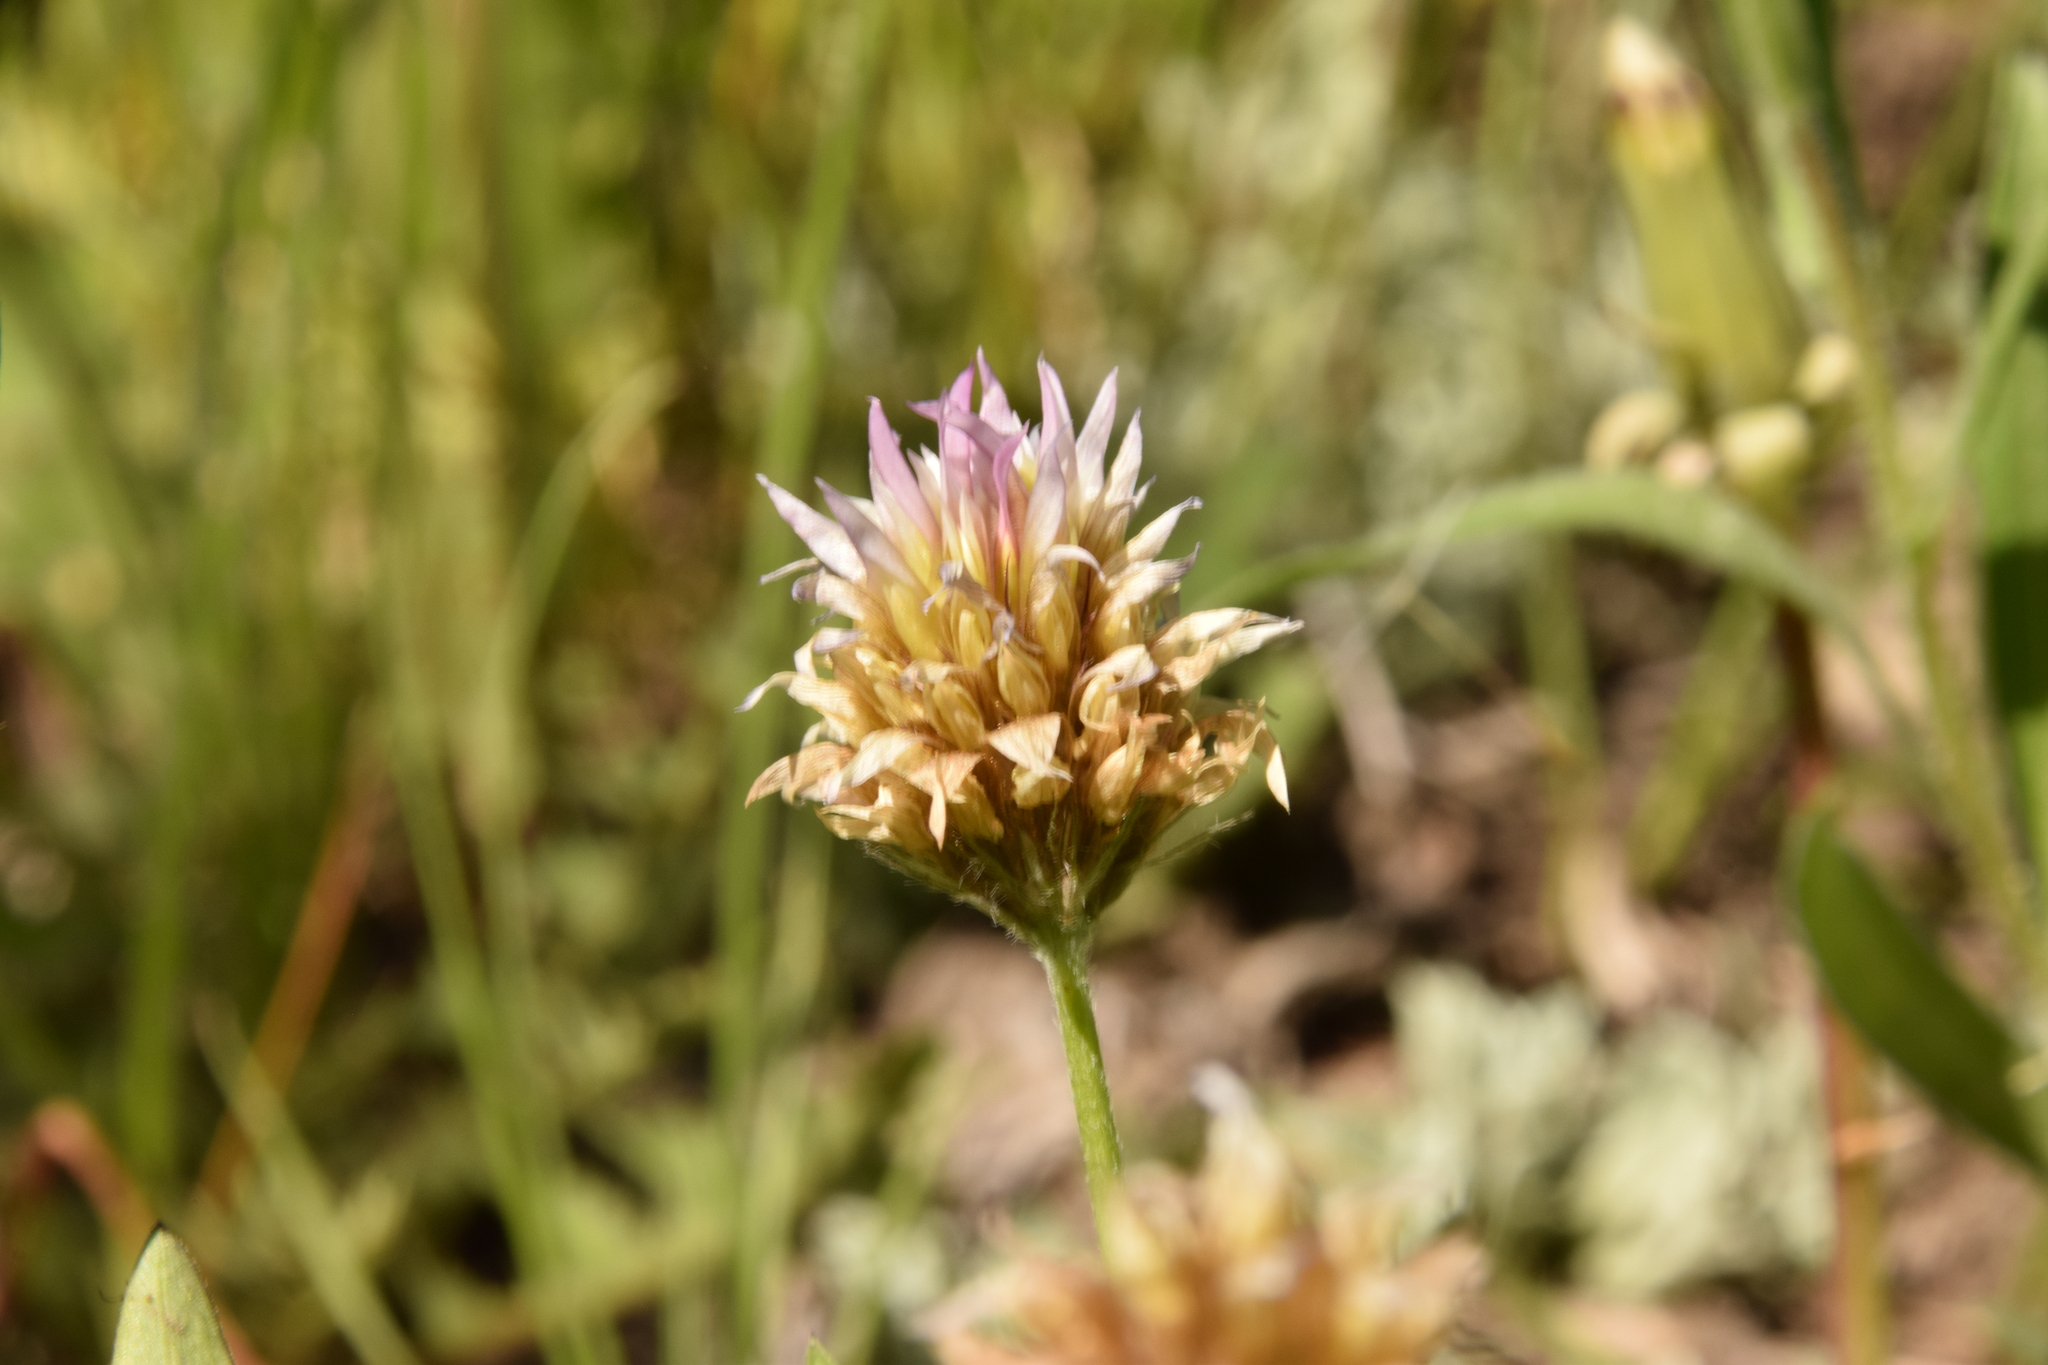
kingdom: Plantae
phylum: Tracheophyta
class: Magnoliopsida
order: Fabales
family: Fabaceae
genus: Trifolium
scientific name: Trifolium longipes
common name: Long-stalk clover
